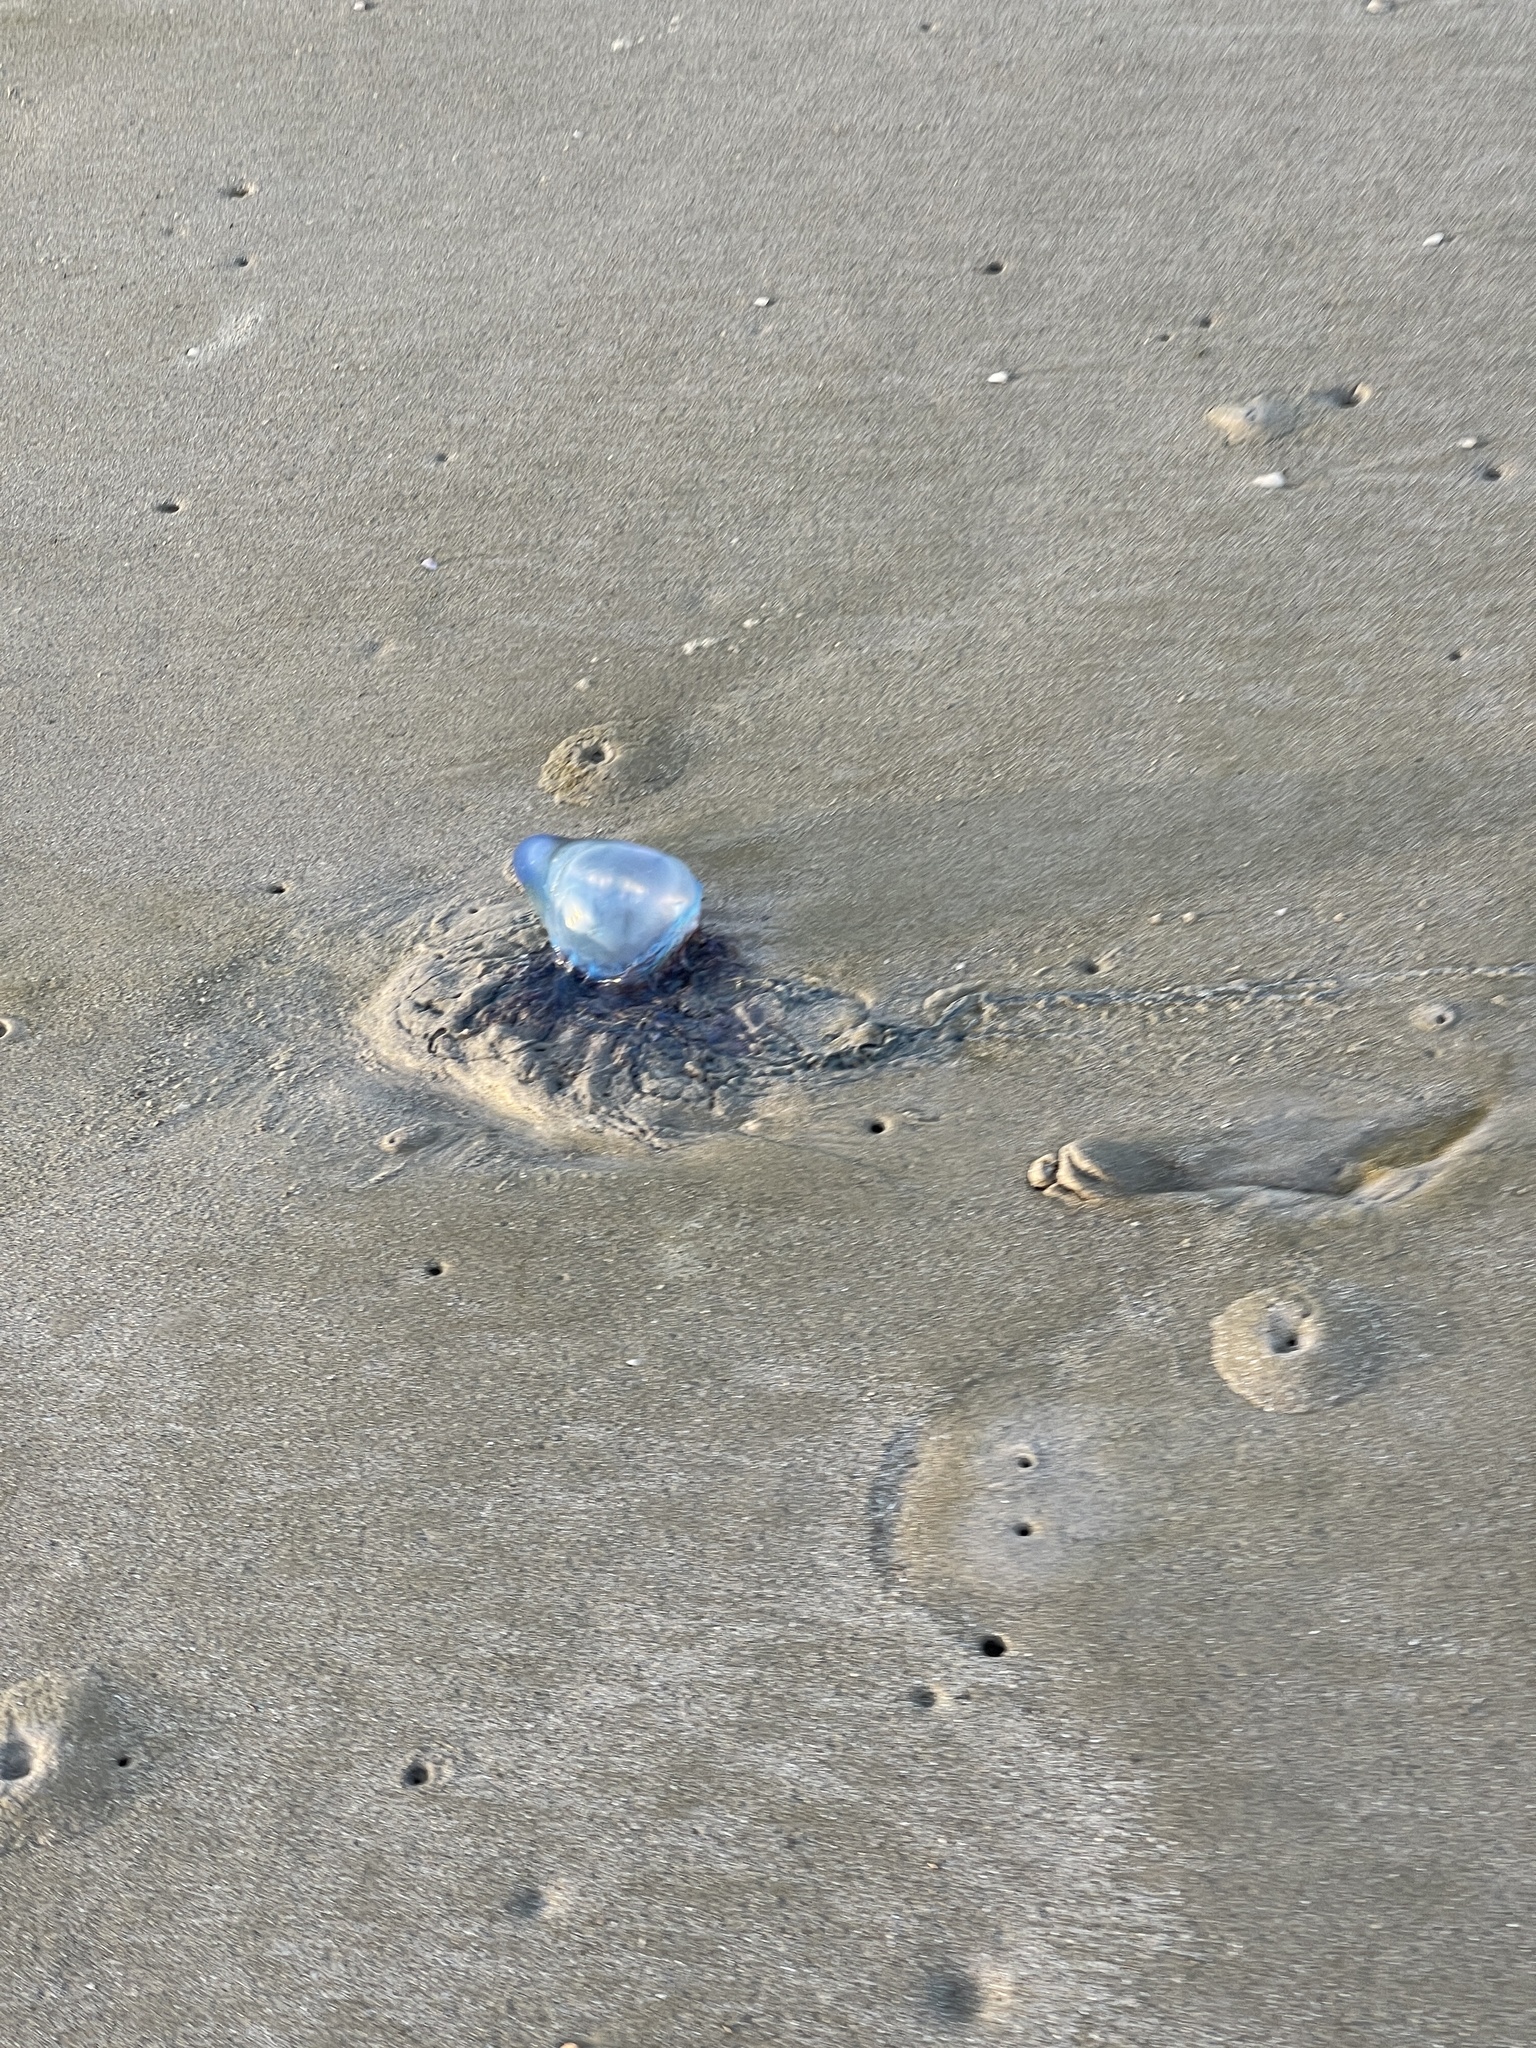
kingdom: Animalia
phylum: Cnidaria
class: Hydrozoa
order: Siphonophorae
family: Physaliidae
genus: Physalia
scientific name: Physalia physalis
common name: Portuguese man-of-war
